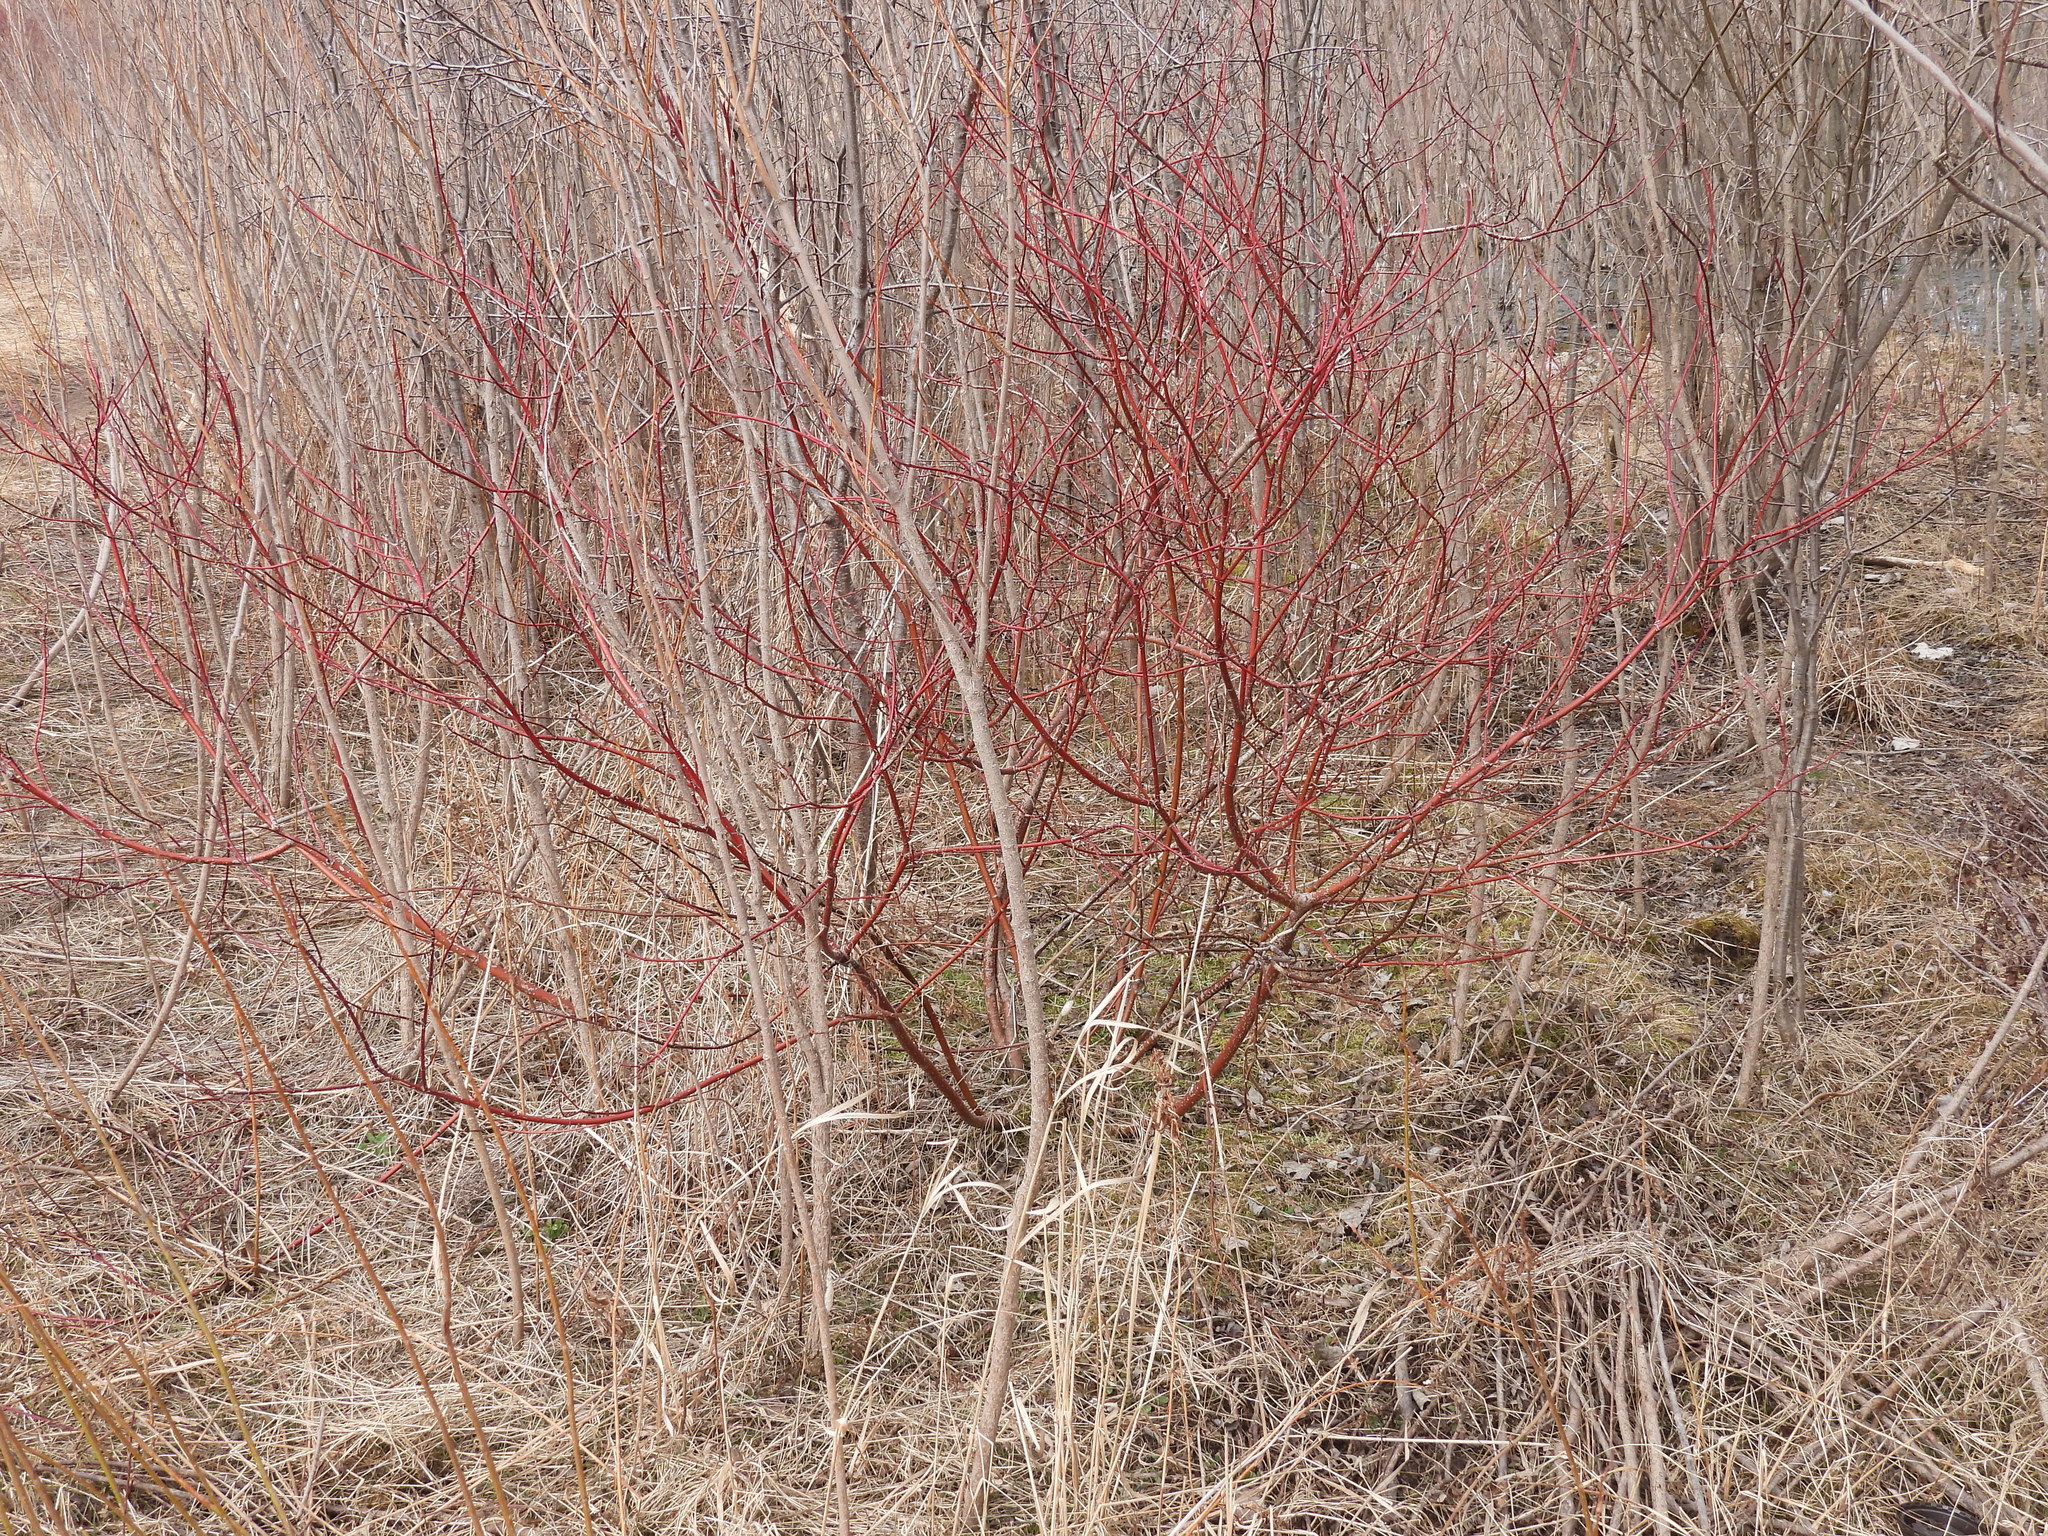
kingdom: Plantae
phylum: Tracheophyta
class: Magnoliopsida
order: Cornales
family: Cornaceae
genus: Cornus
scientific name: Cornus sericea
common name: Red-osier dogwood
